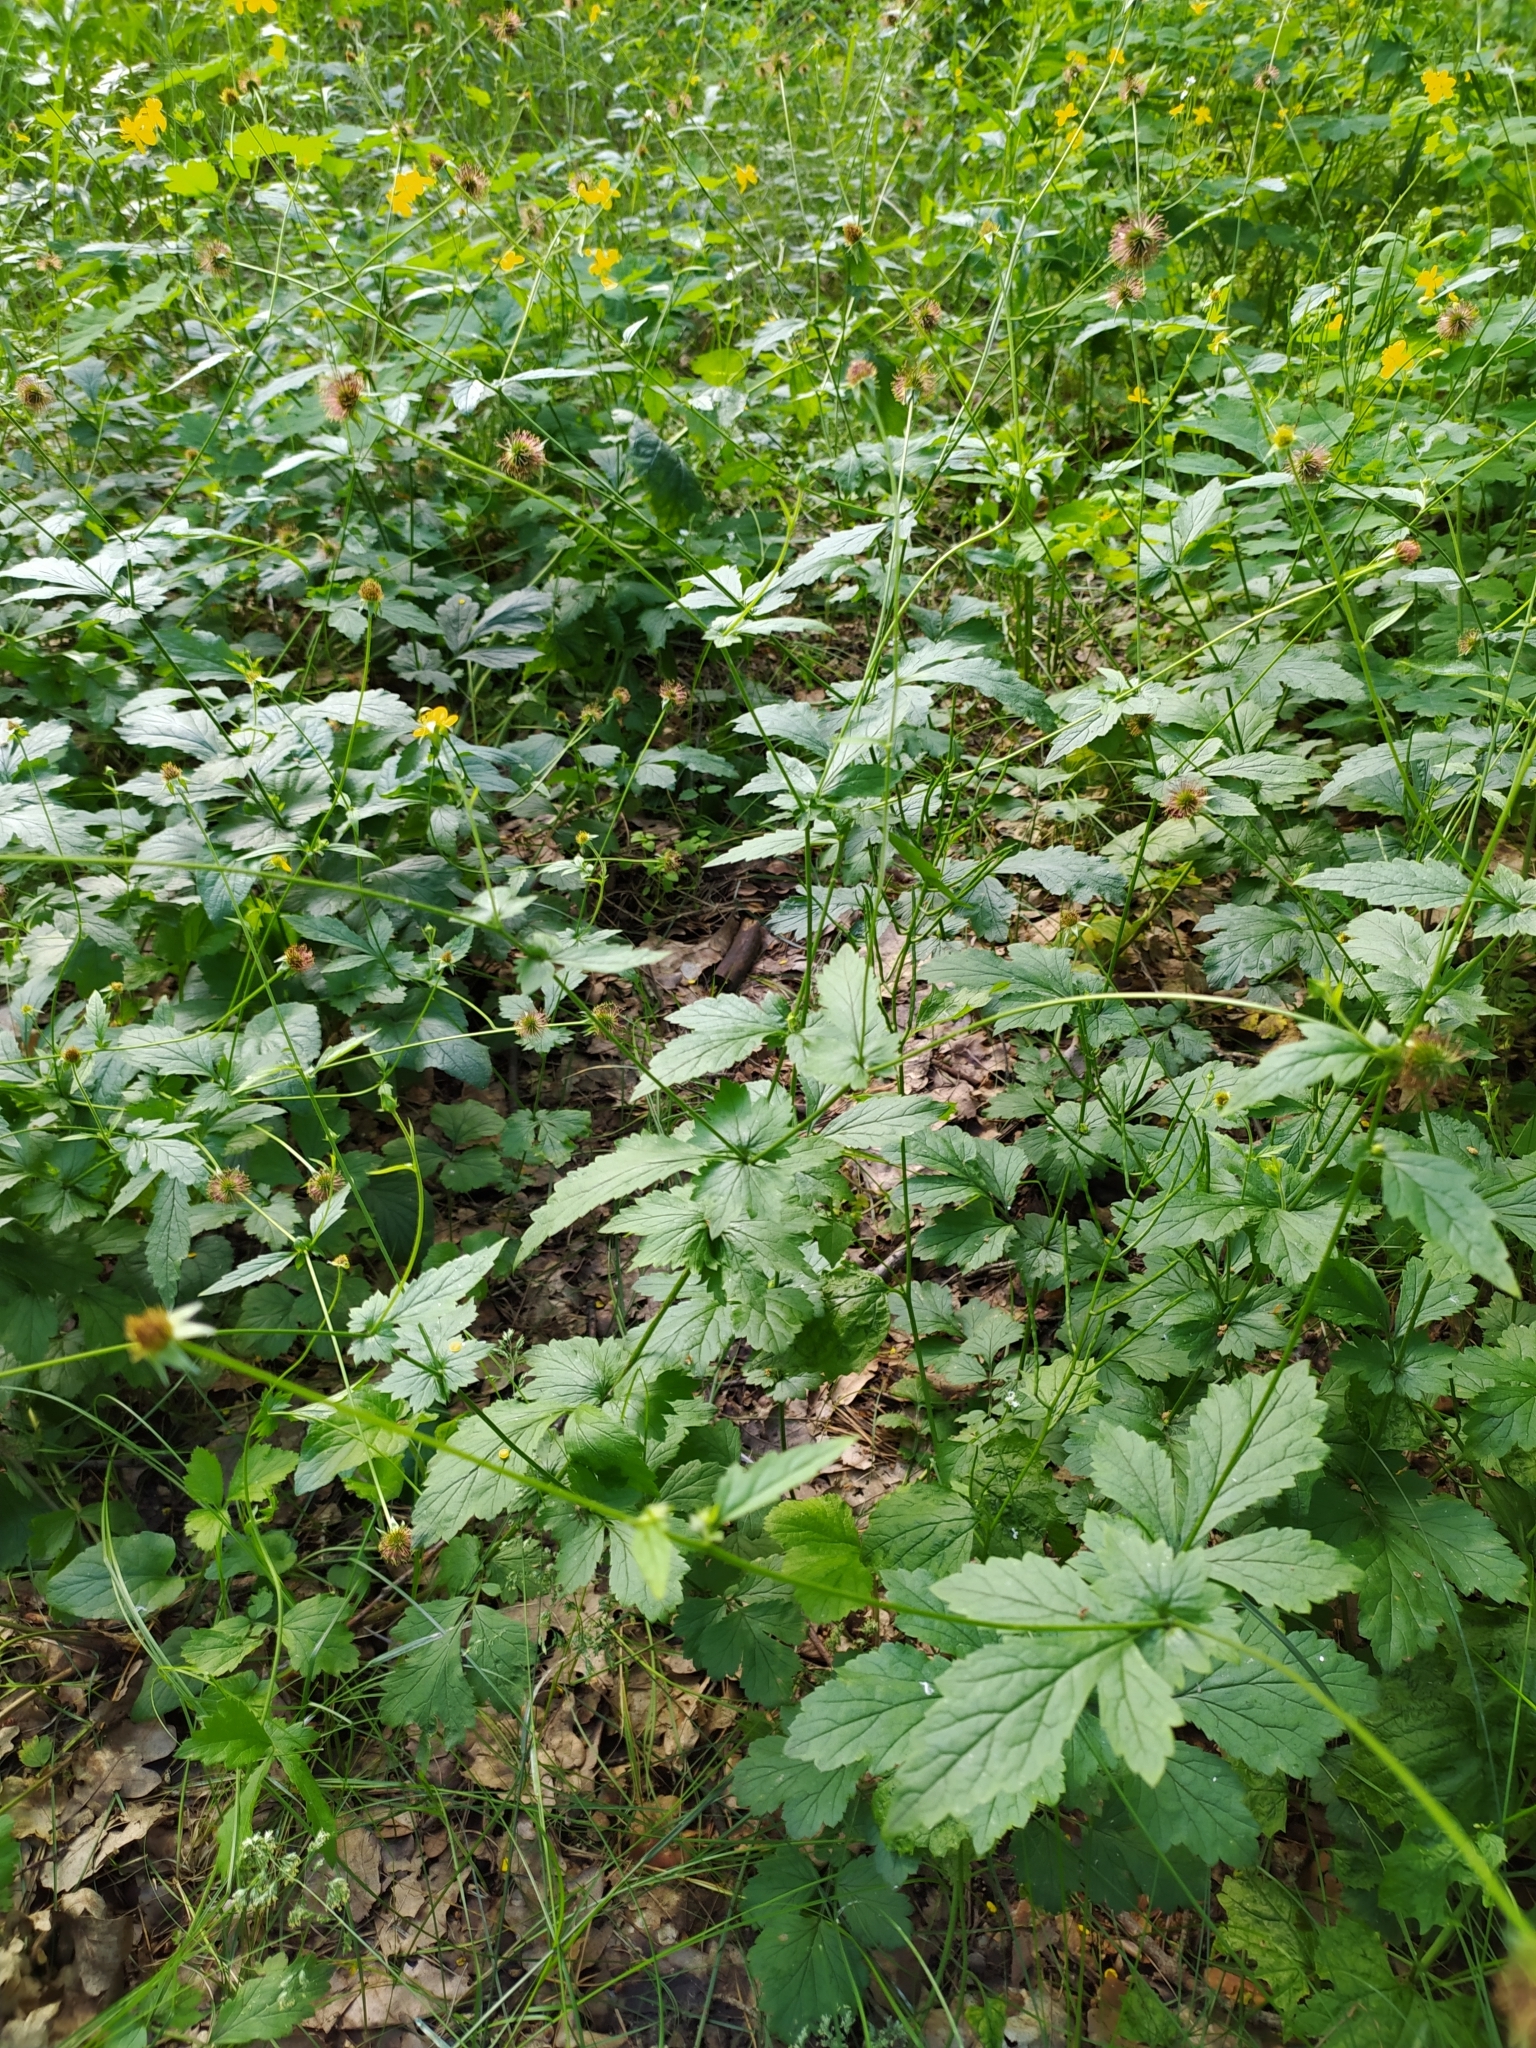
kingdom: Plantae
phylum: Tracheophyta
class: Magnoliopsida
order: Rosales
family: Rosaceae
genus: Geum
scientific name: Geum urbanum
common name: Wood avens
